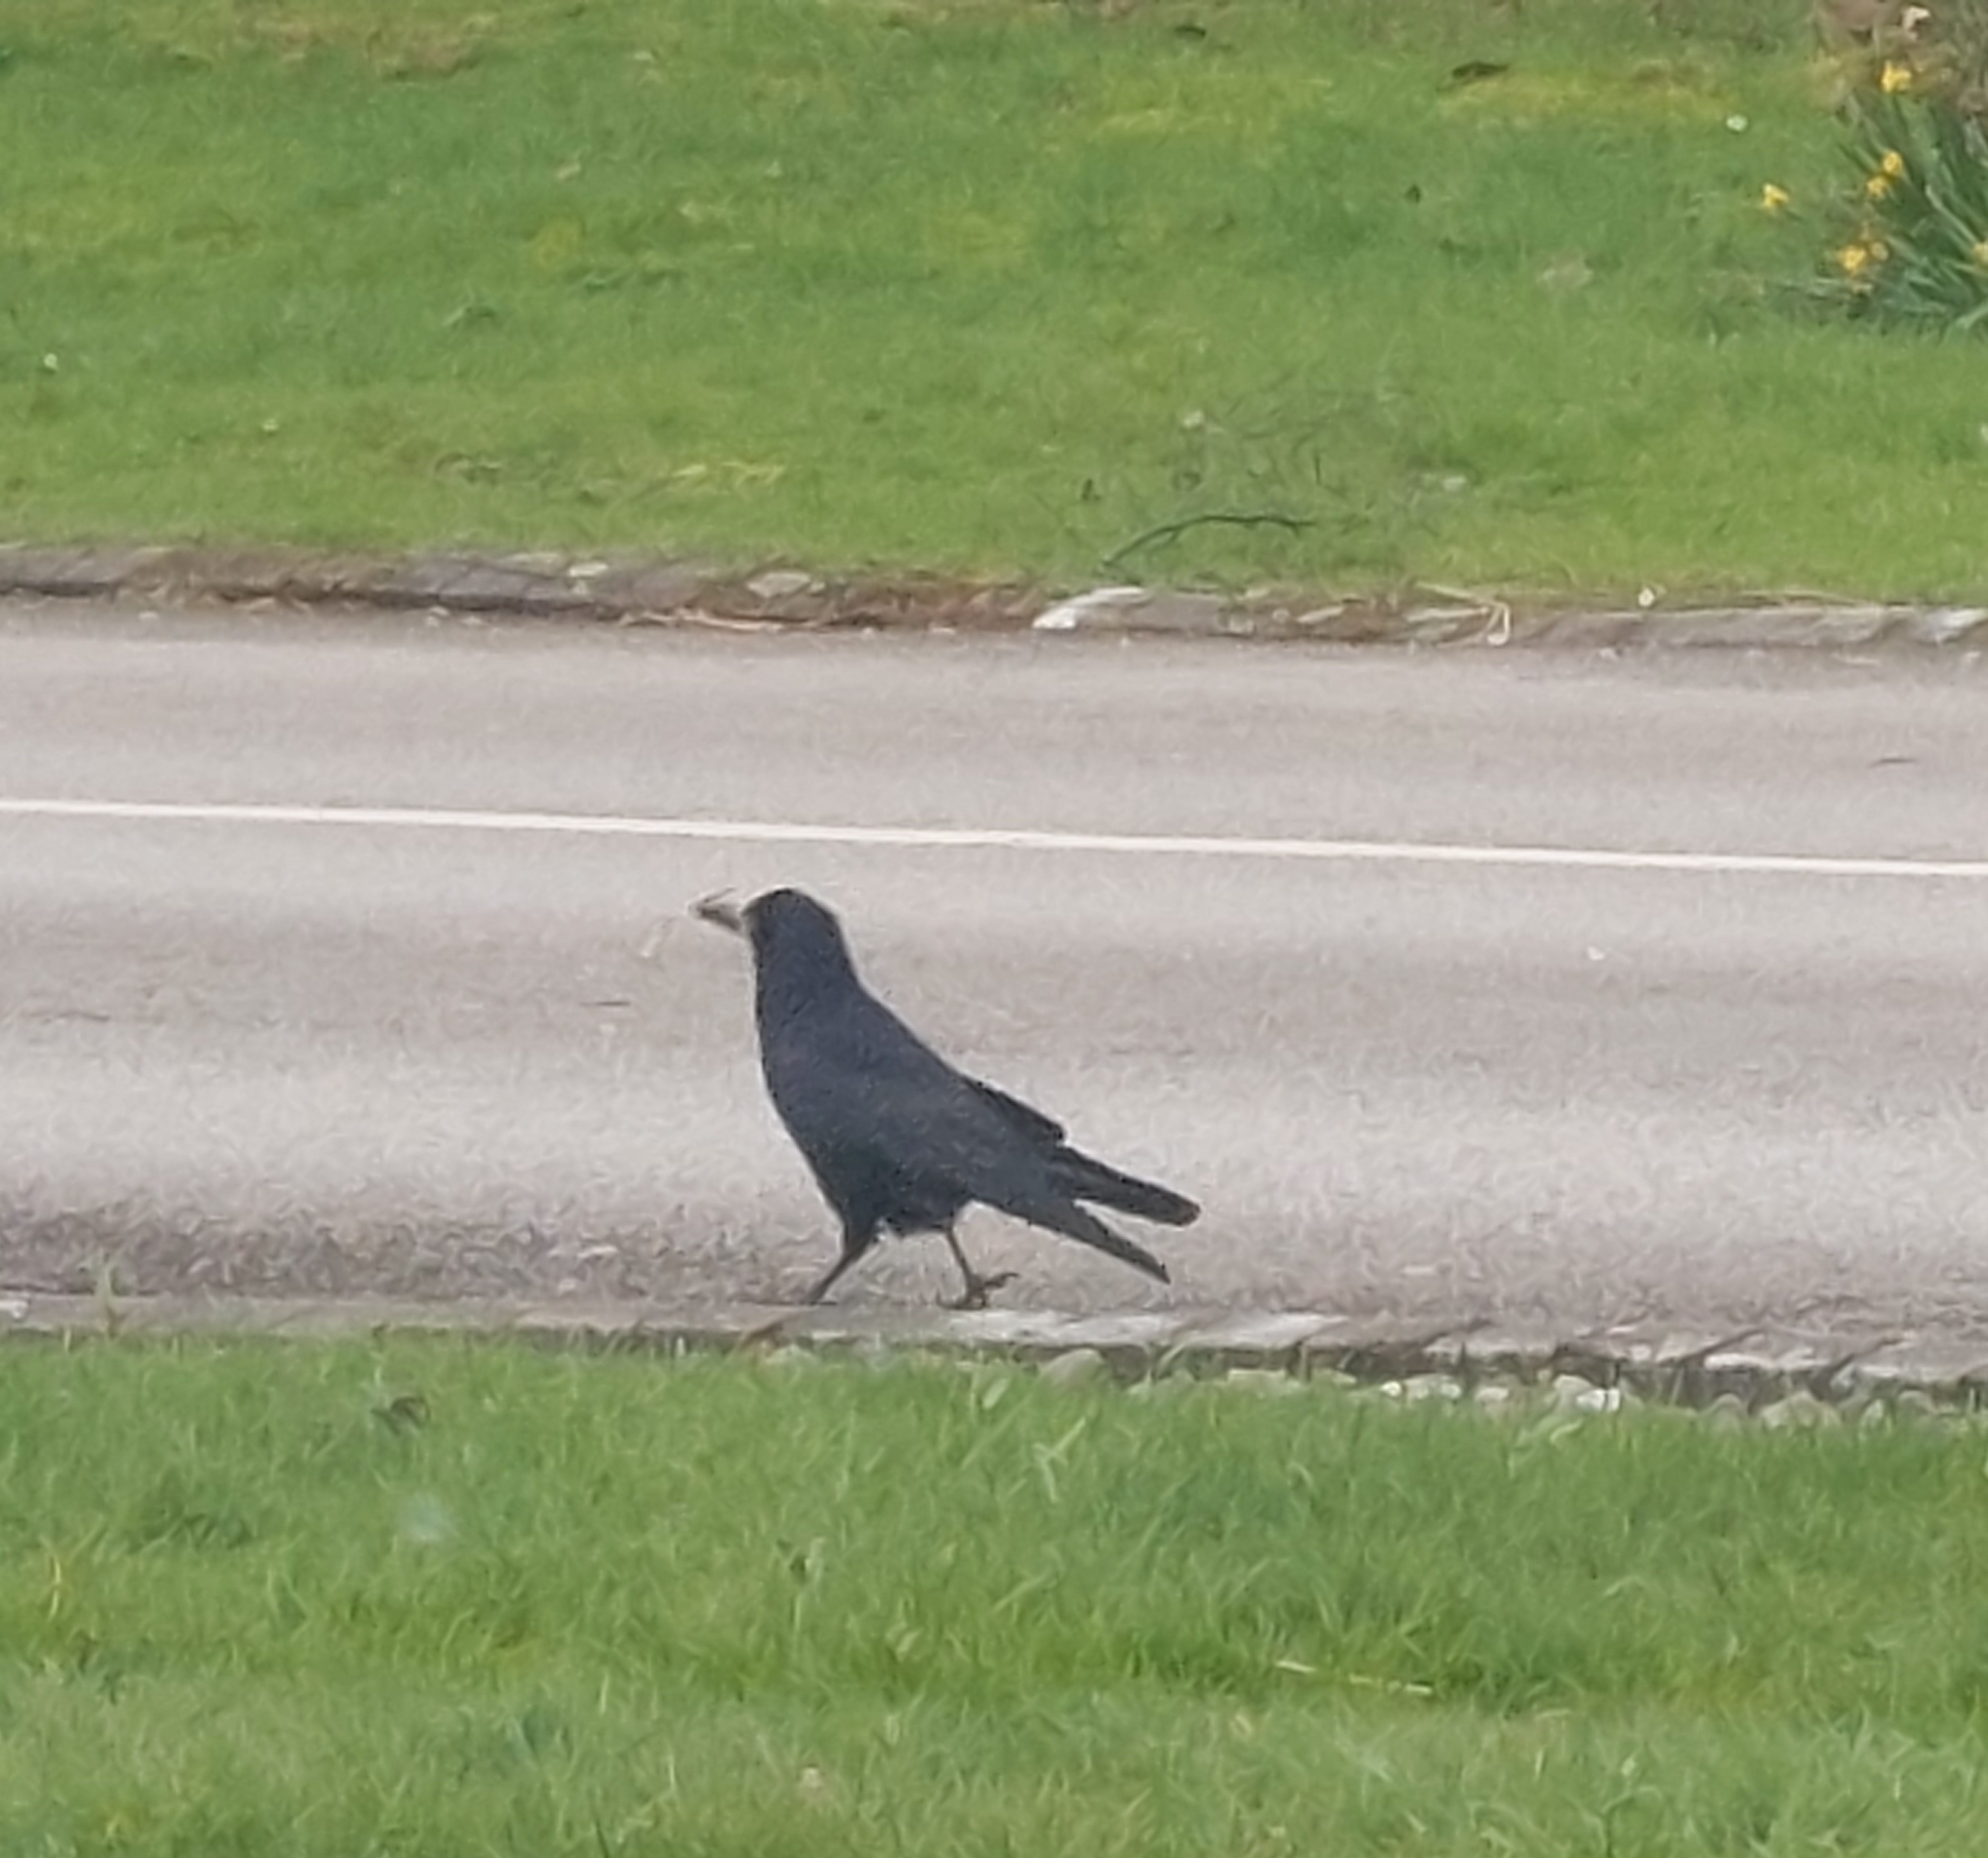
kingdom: Animalia
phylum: Chordata
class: Aves
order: Passeriformes
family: Corvidae
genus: Corvus
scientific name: Corvus frugilegus
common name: Rook
